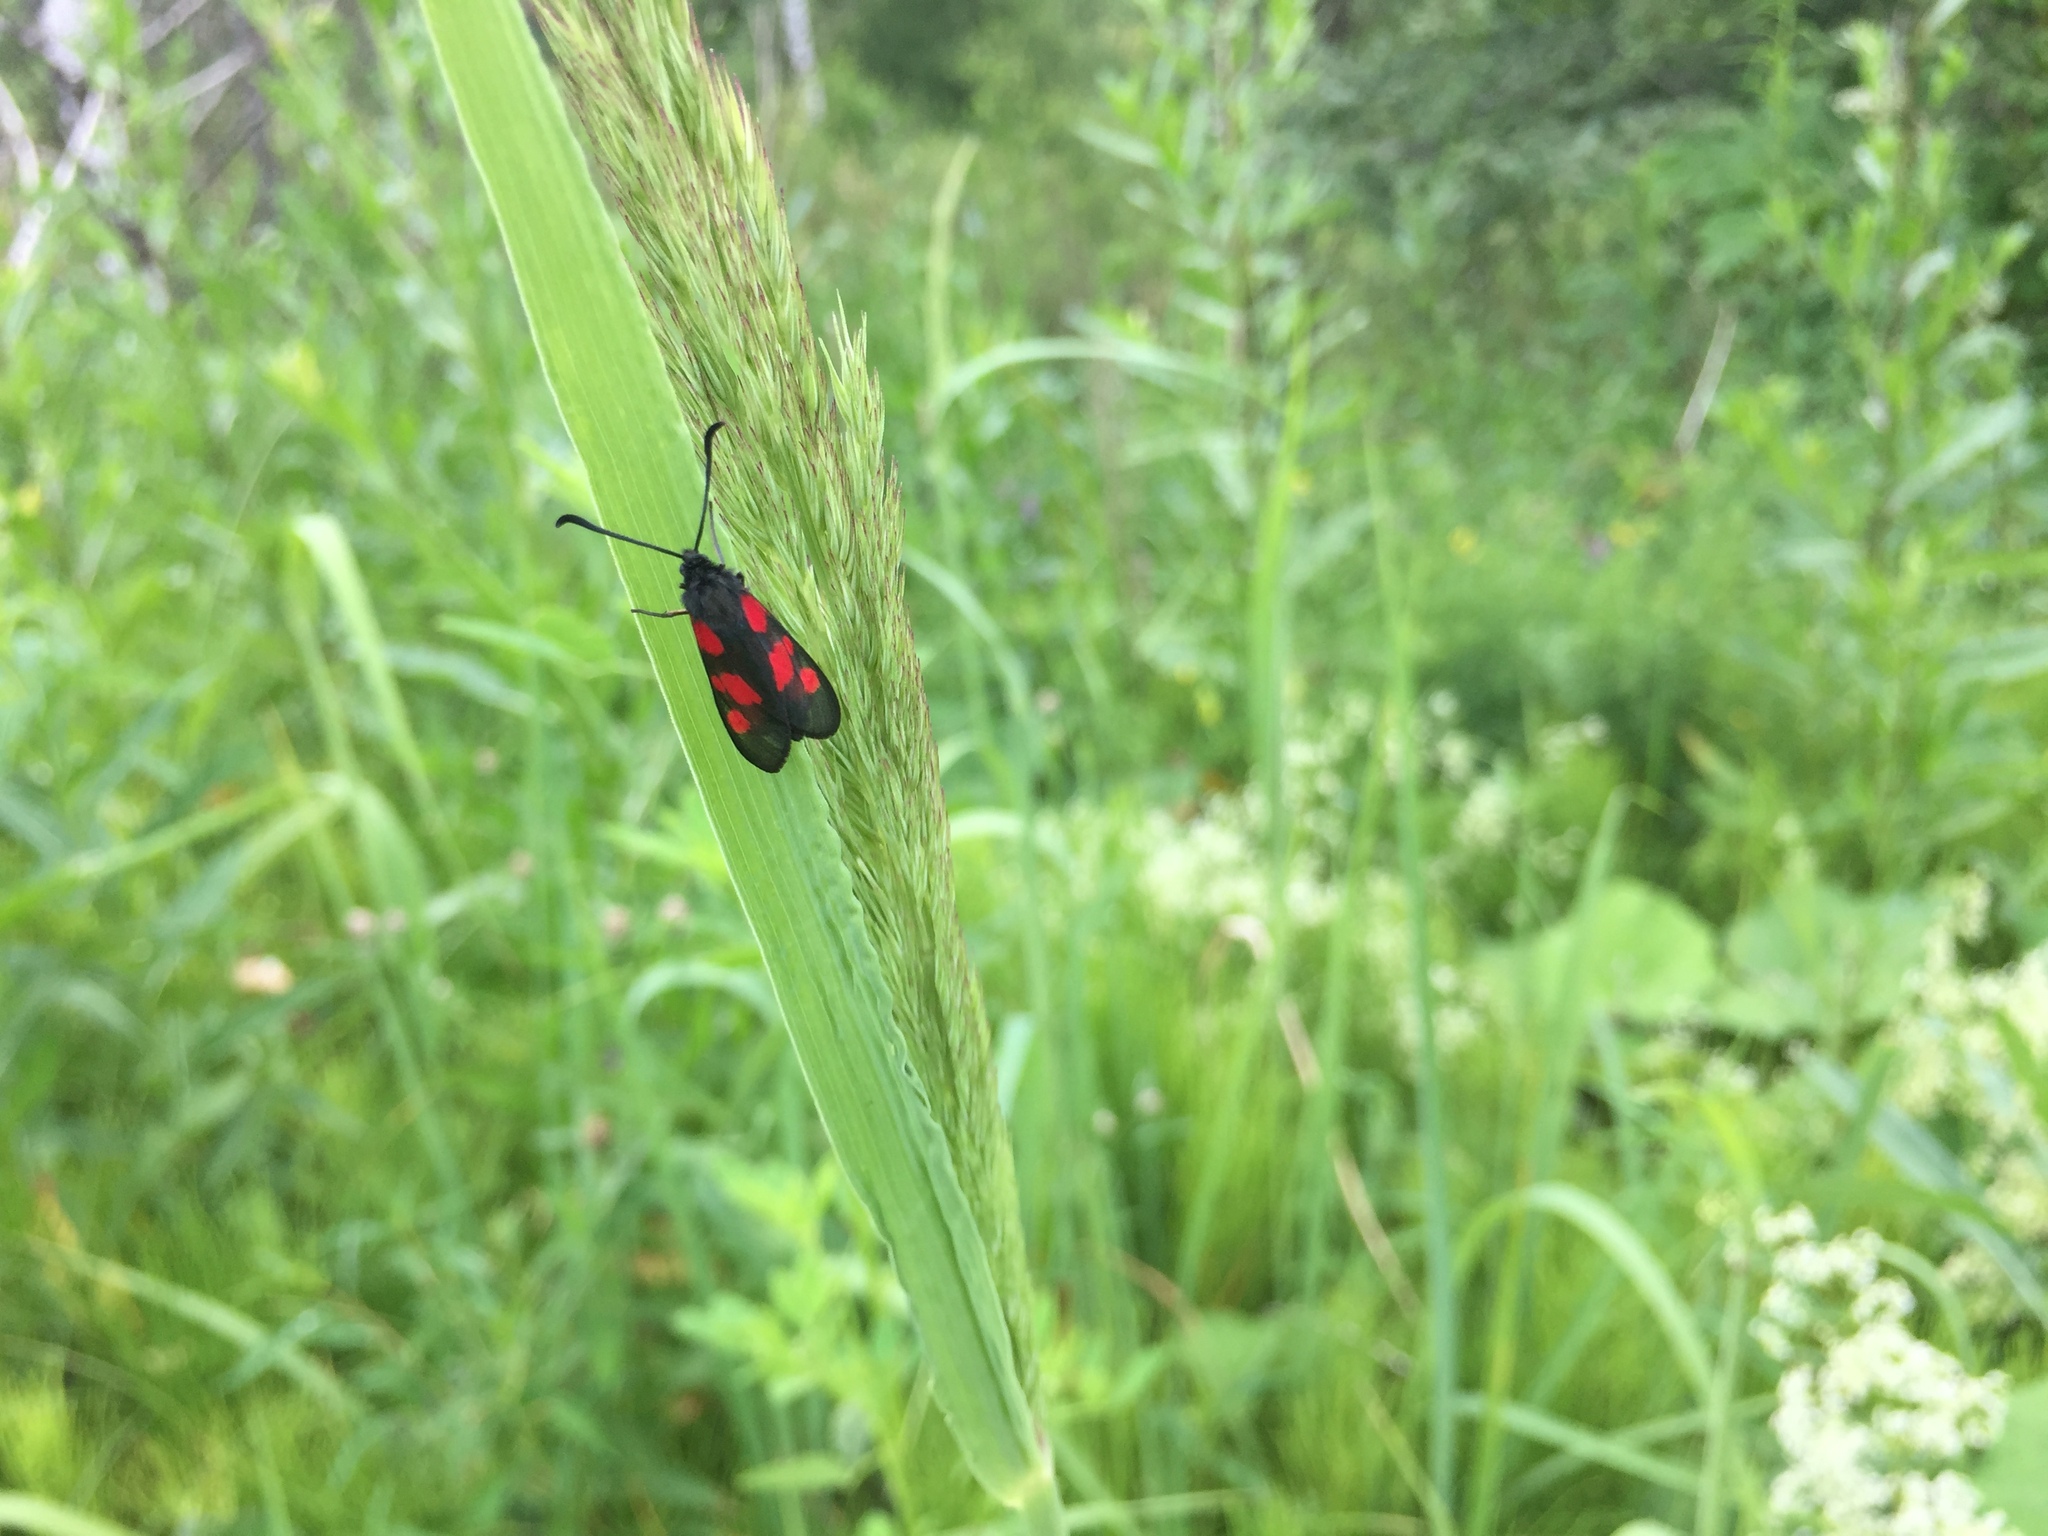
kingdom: Animalia
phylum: Arthropoda
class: Insecta
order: Lepidoptera
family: Zygaenidae
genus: Zygaena
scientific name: Zygaena viciae
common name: New forest burnet
